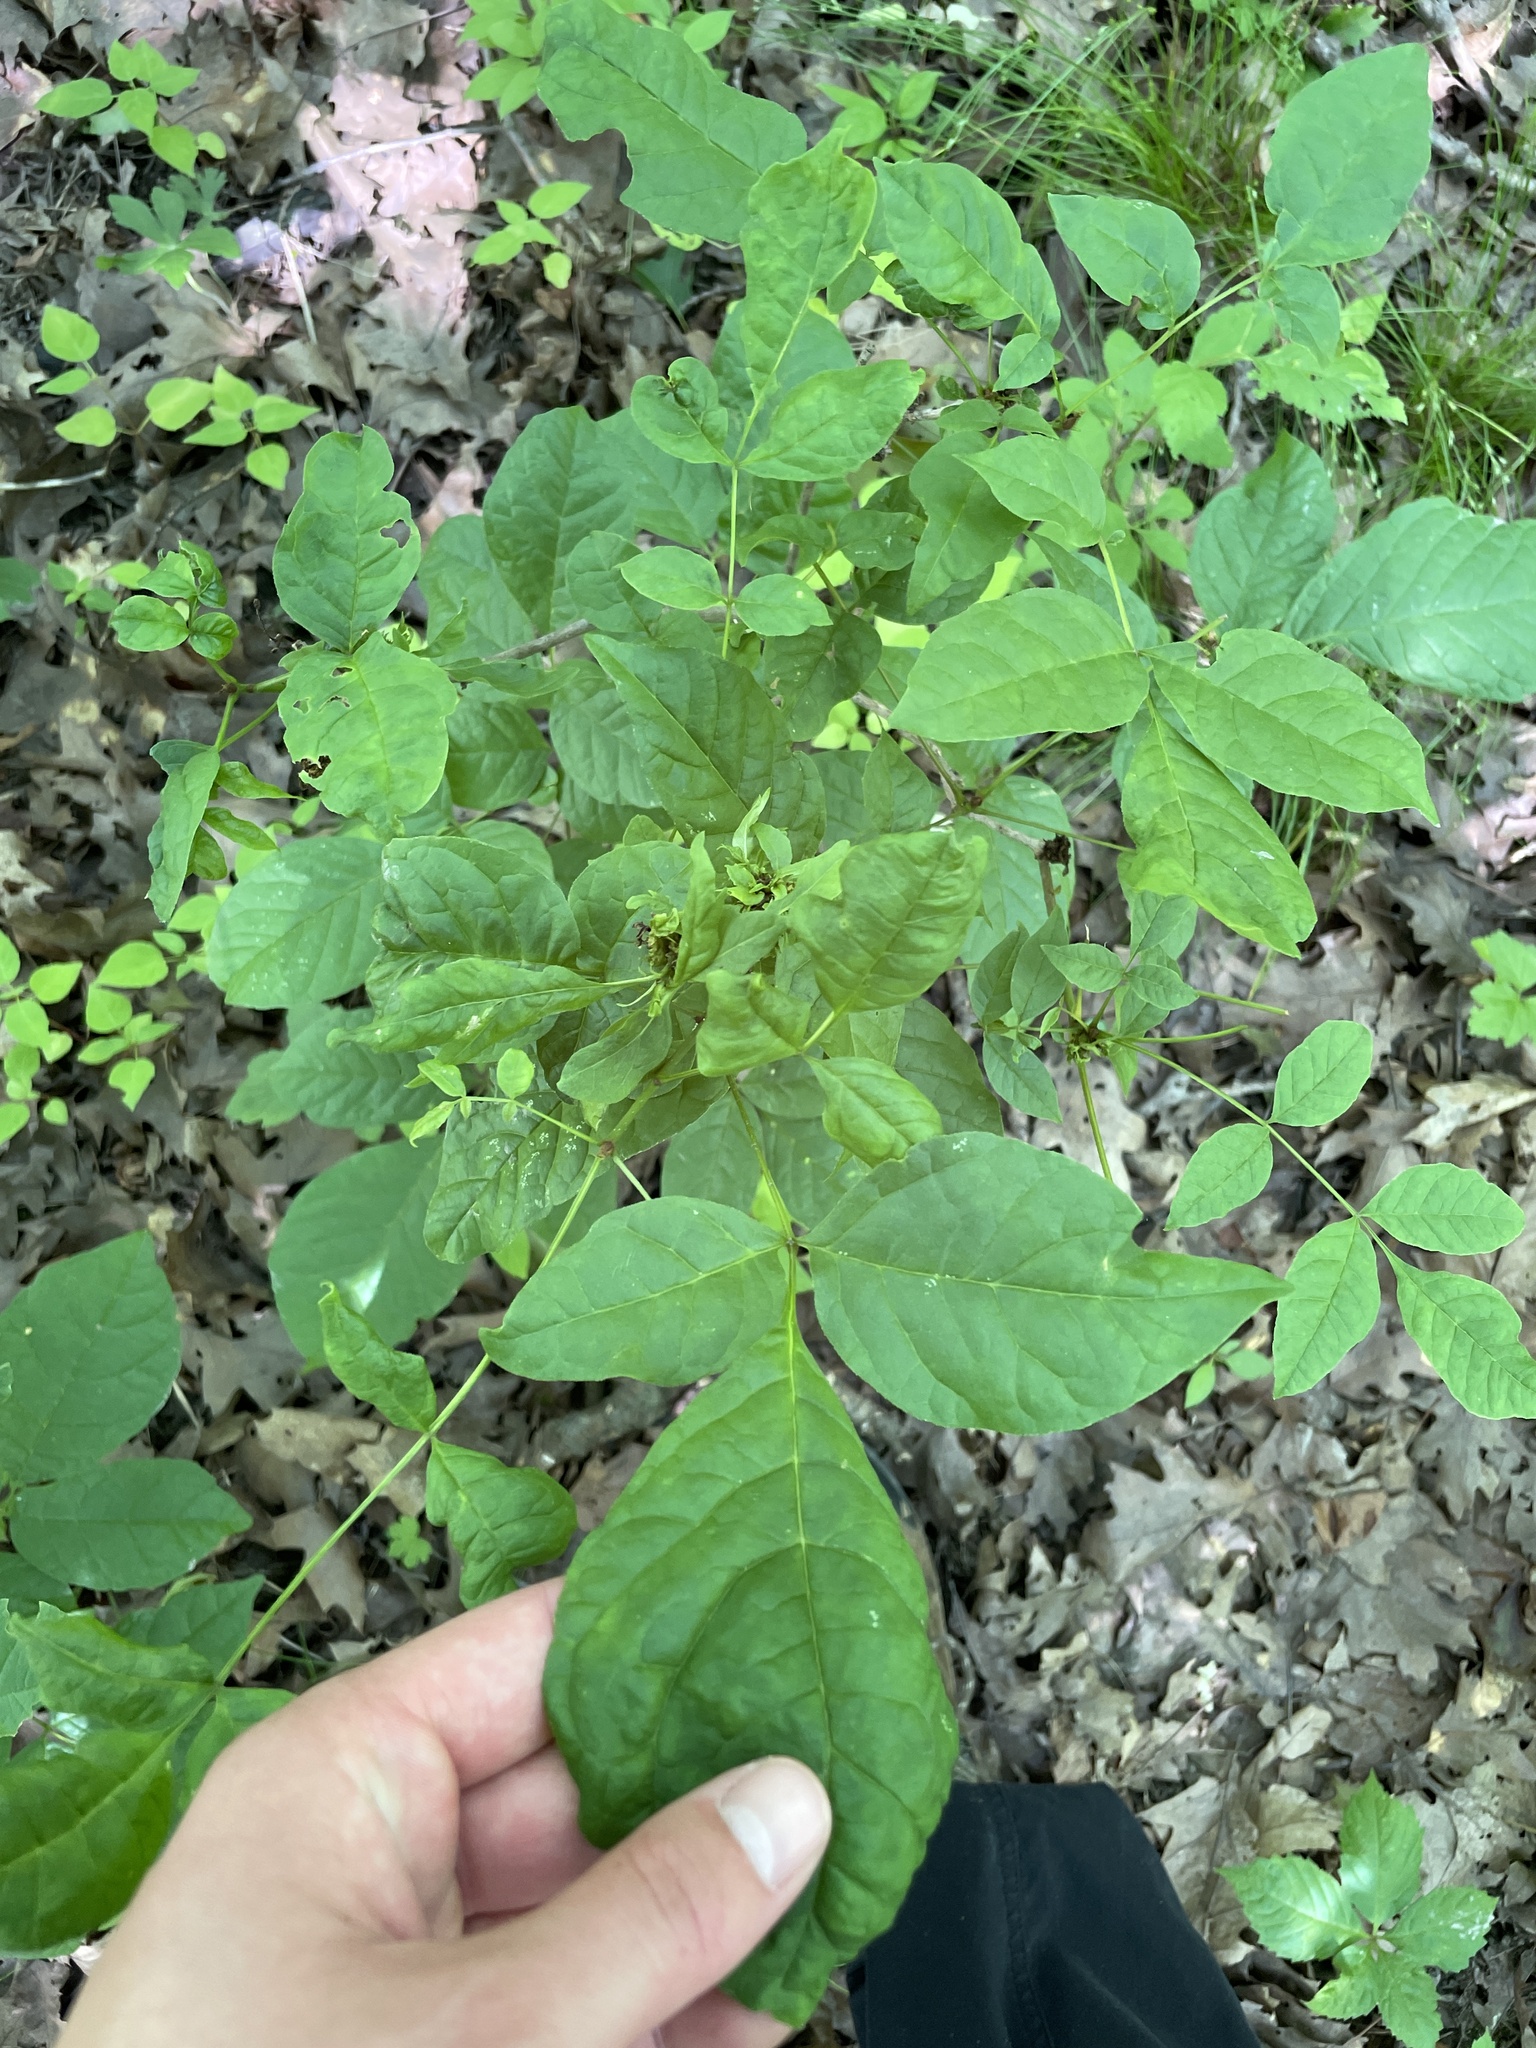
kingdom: Animalia
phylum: Arthropoda
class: Arachnida
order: Trombidiformes
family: Eriophyidae
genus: Aceria
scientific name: Aceria fraxiniflora
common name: Ash flower gall mite
